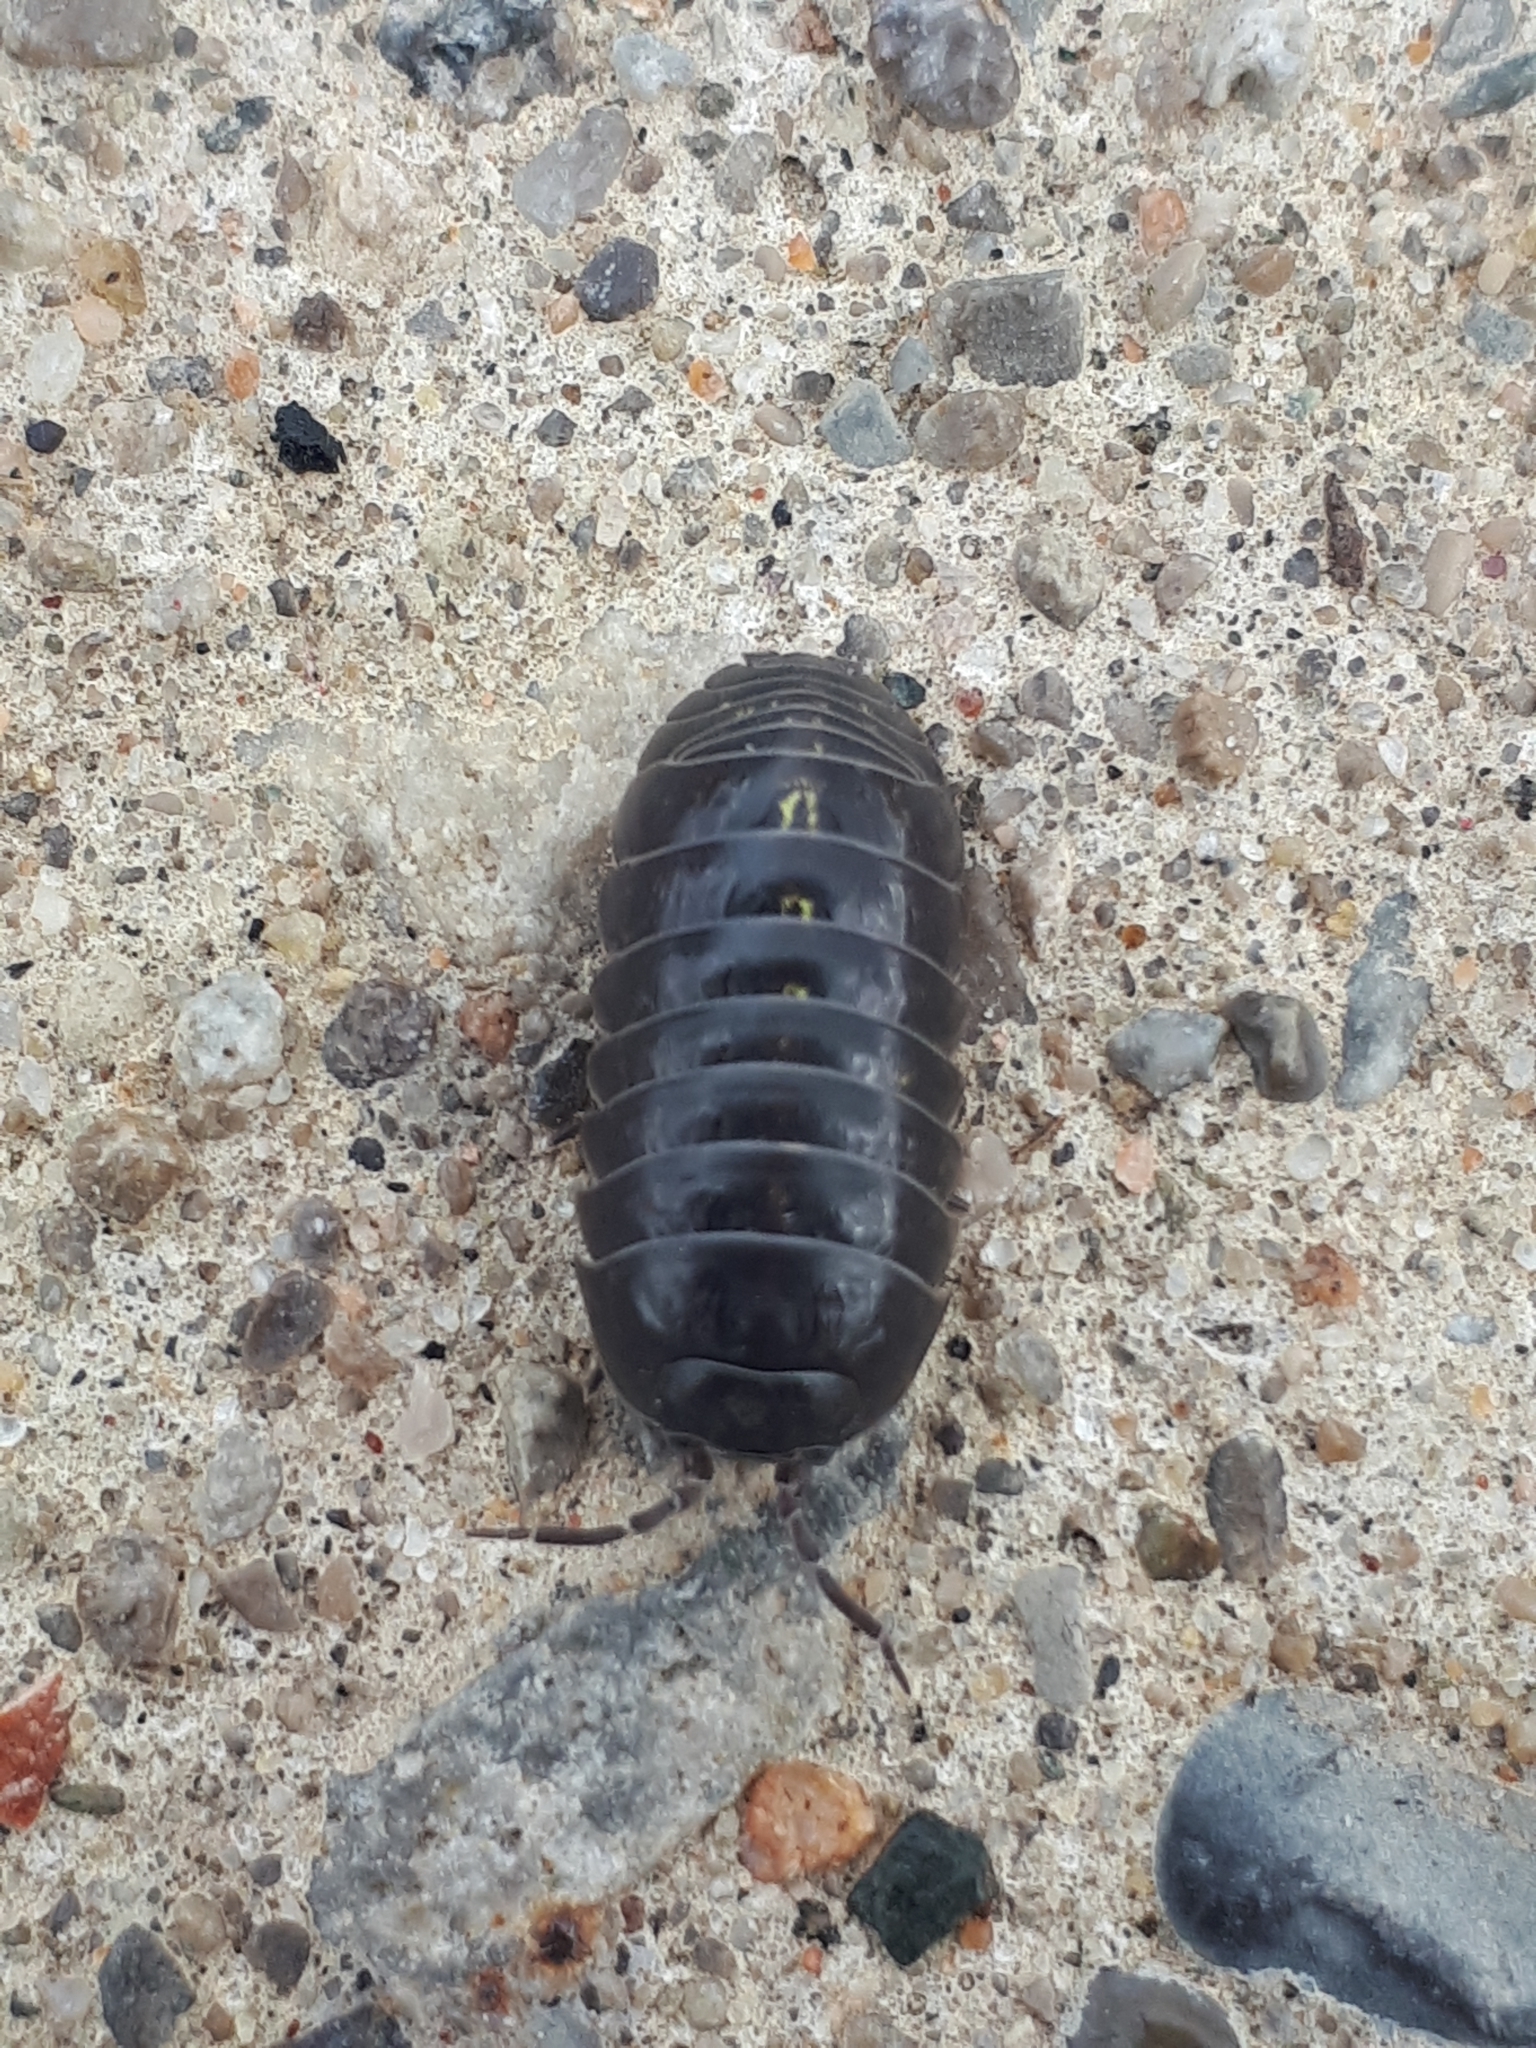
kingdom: Animalia
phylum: Arthropoda
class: Malacostraca
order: Isopoda
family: Armadillidiidae
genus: Armadillidium
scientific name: Armadillidium vulgare
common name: Common pill woodlouse
